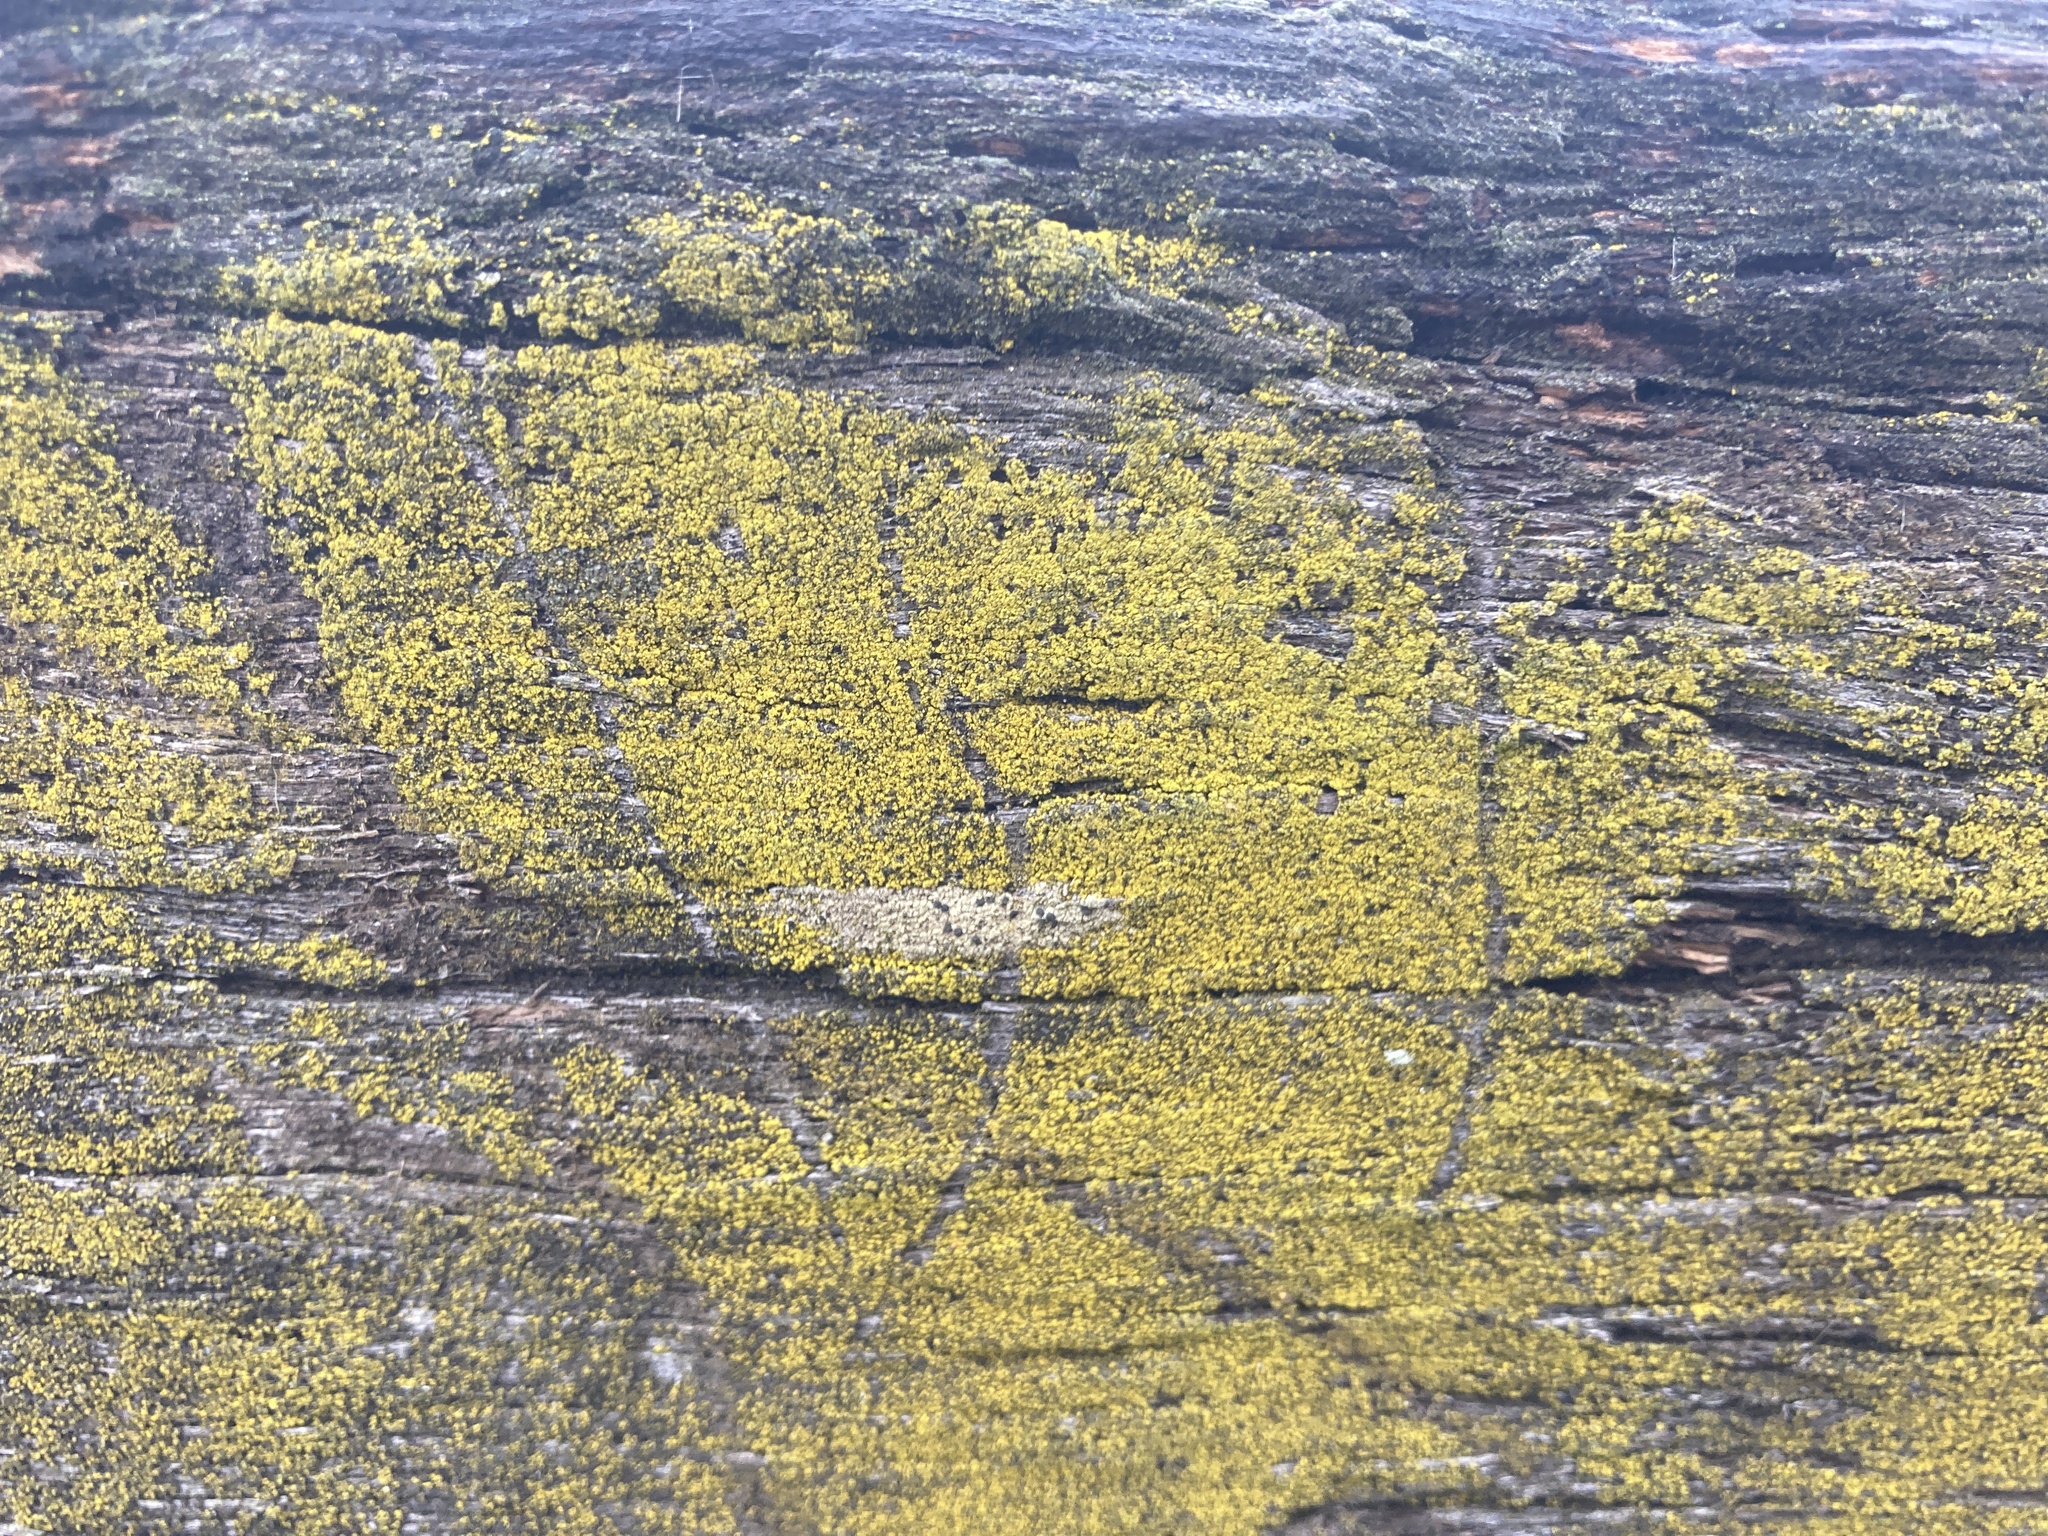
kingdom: Fungi
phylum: Ascomycota
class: Arthoniomycetes
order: Arthoniales
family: Chrysotrichaceae
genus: Chrysothrix
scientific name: Chrysothrix candelaris
